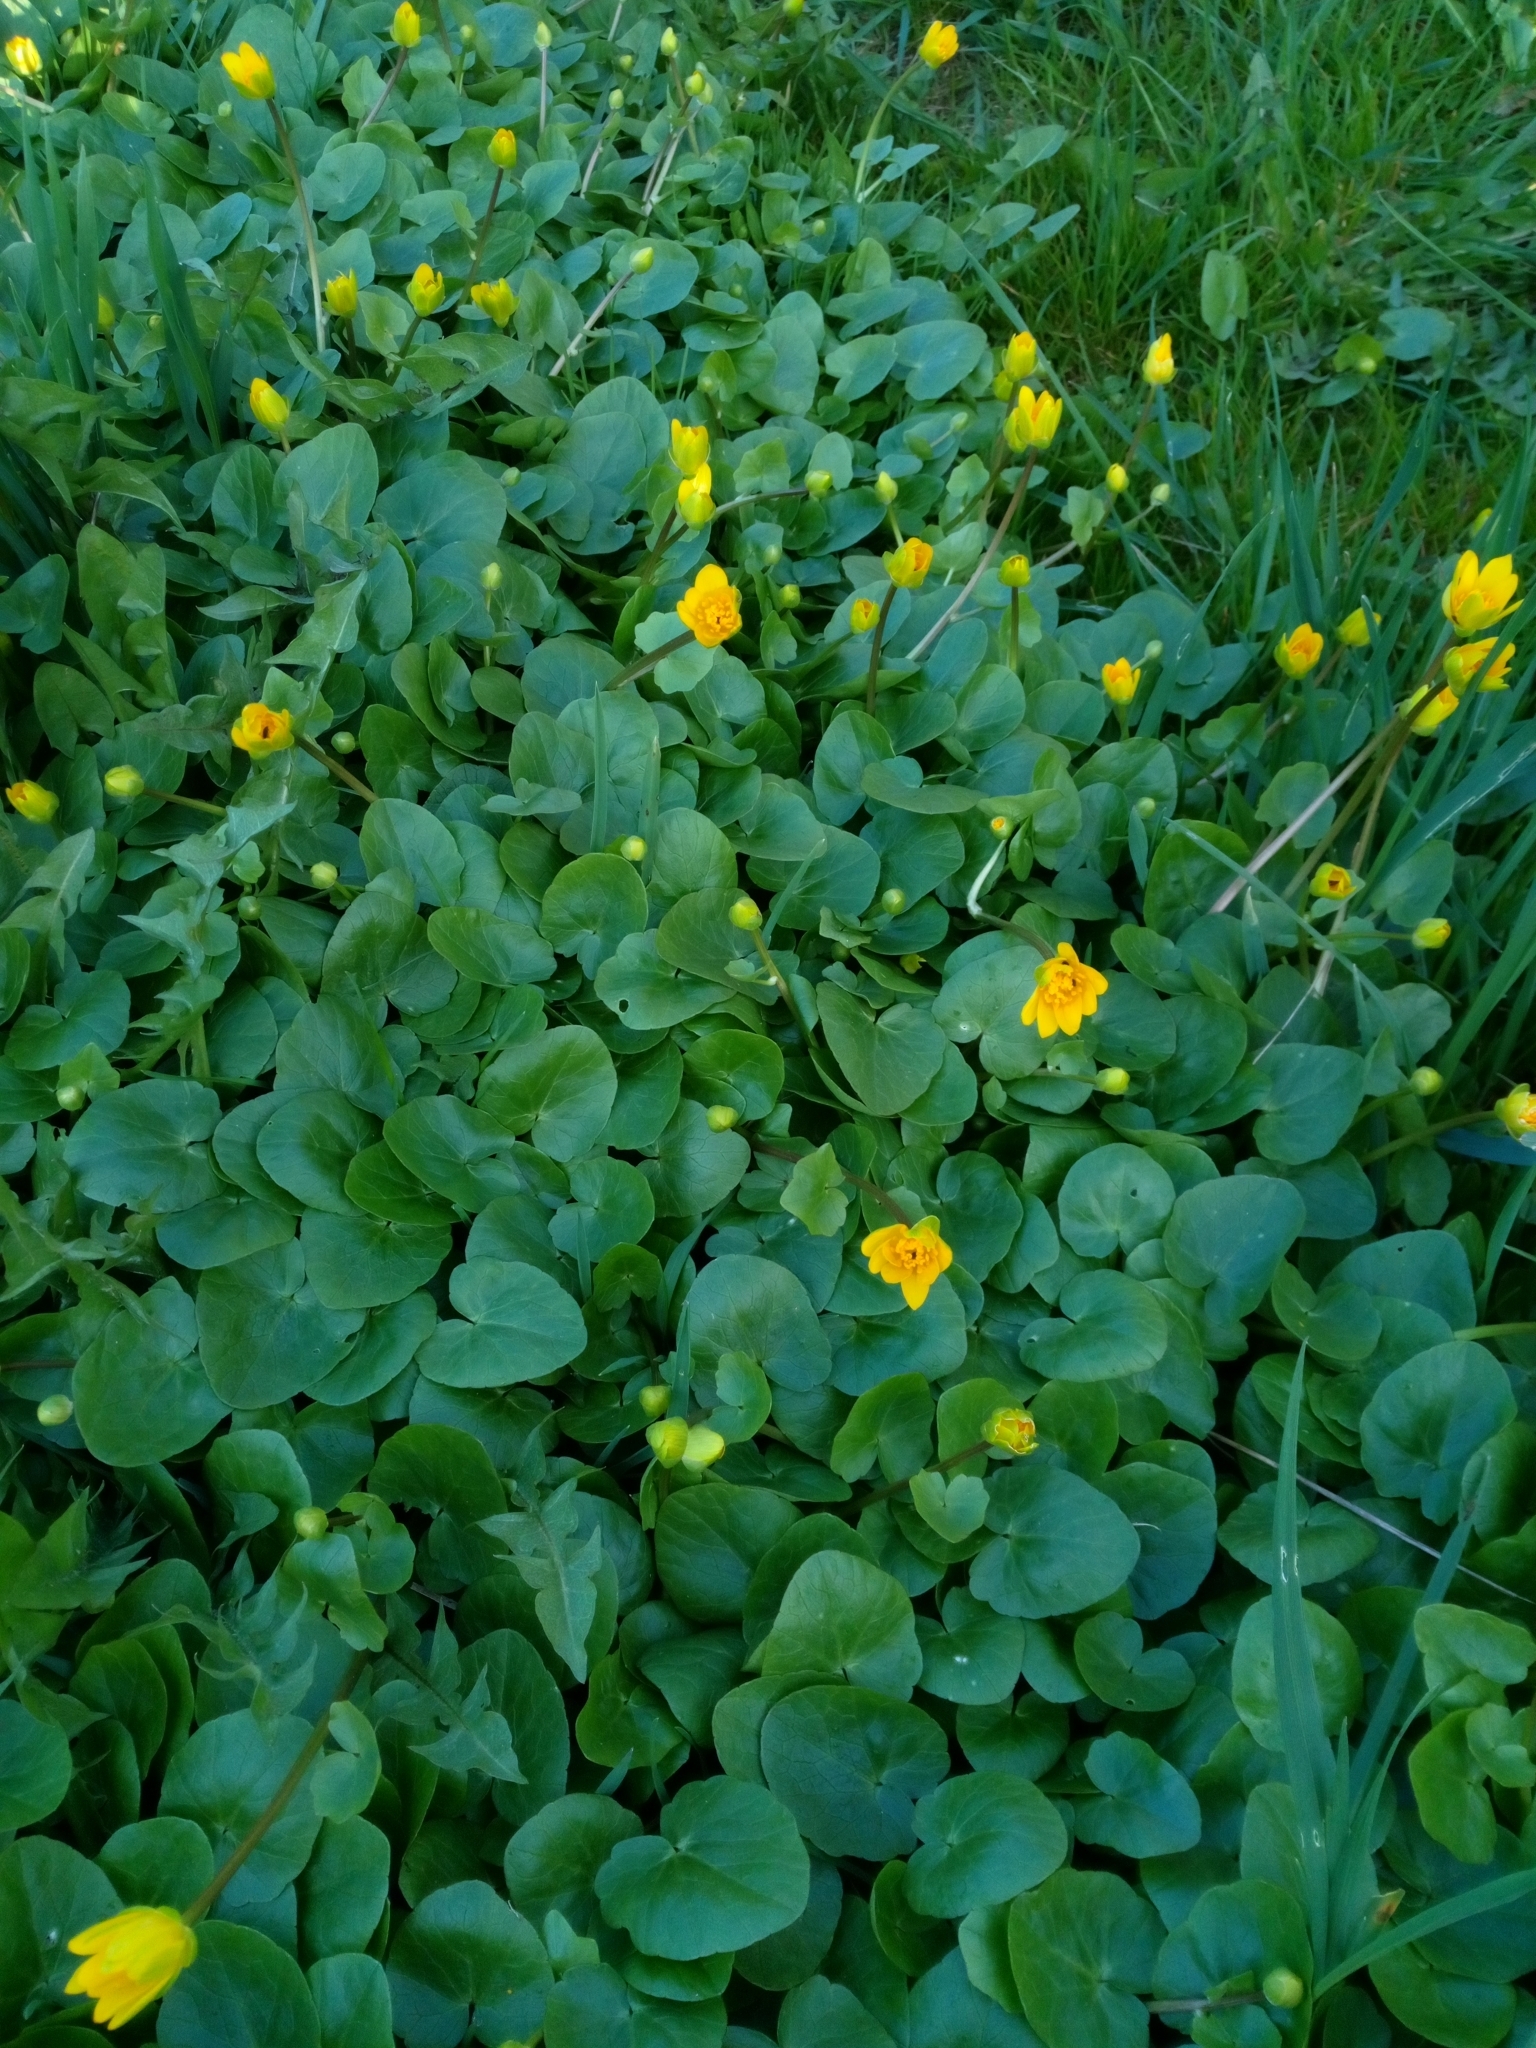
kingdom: Plantae
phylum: Tracheophyta
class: Magnoliopsida
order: Ranunculales
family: Ranunculaceae
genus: Ficaria
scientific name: Ficaria verna
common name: Lesser celandine
